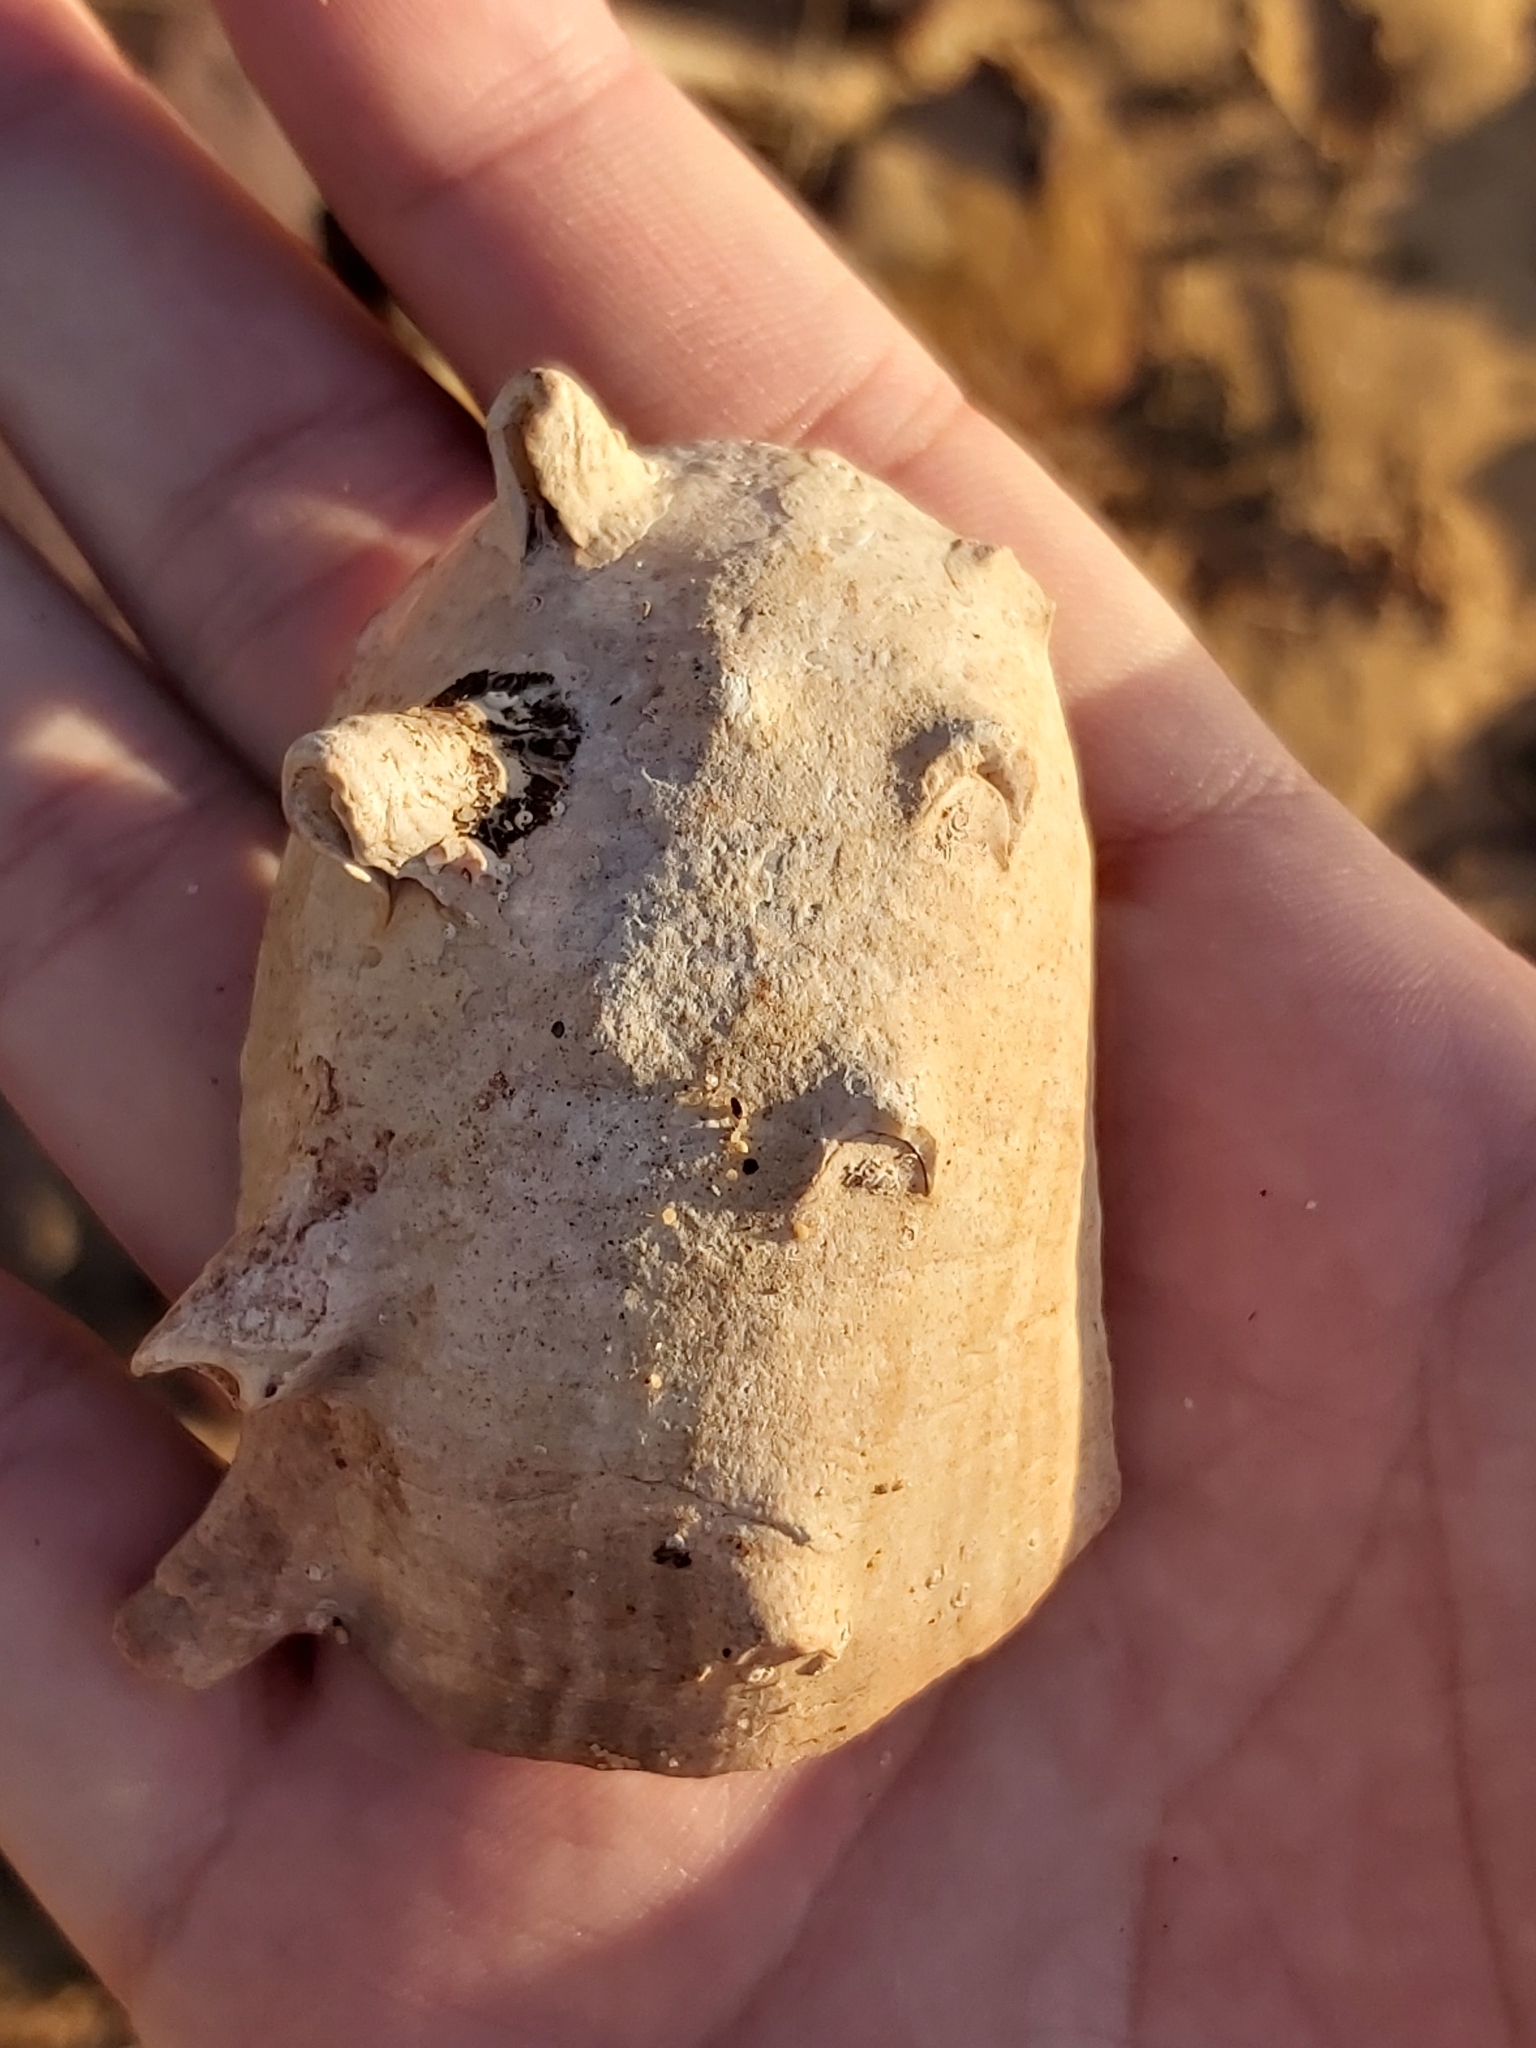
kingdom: Animalia
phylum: Mollusca
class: Gastropoda
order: Trochida
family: Turbinidae
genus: Turbo
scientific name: Turbo militaris
